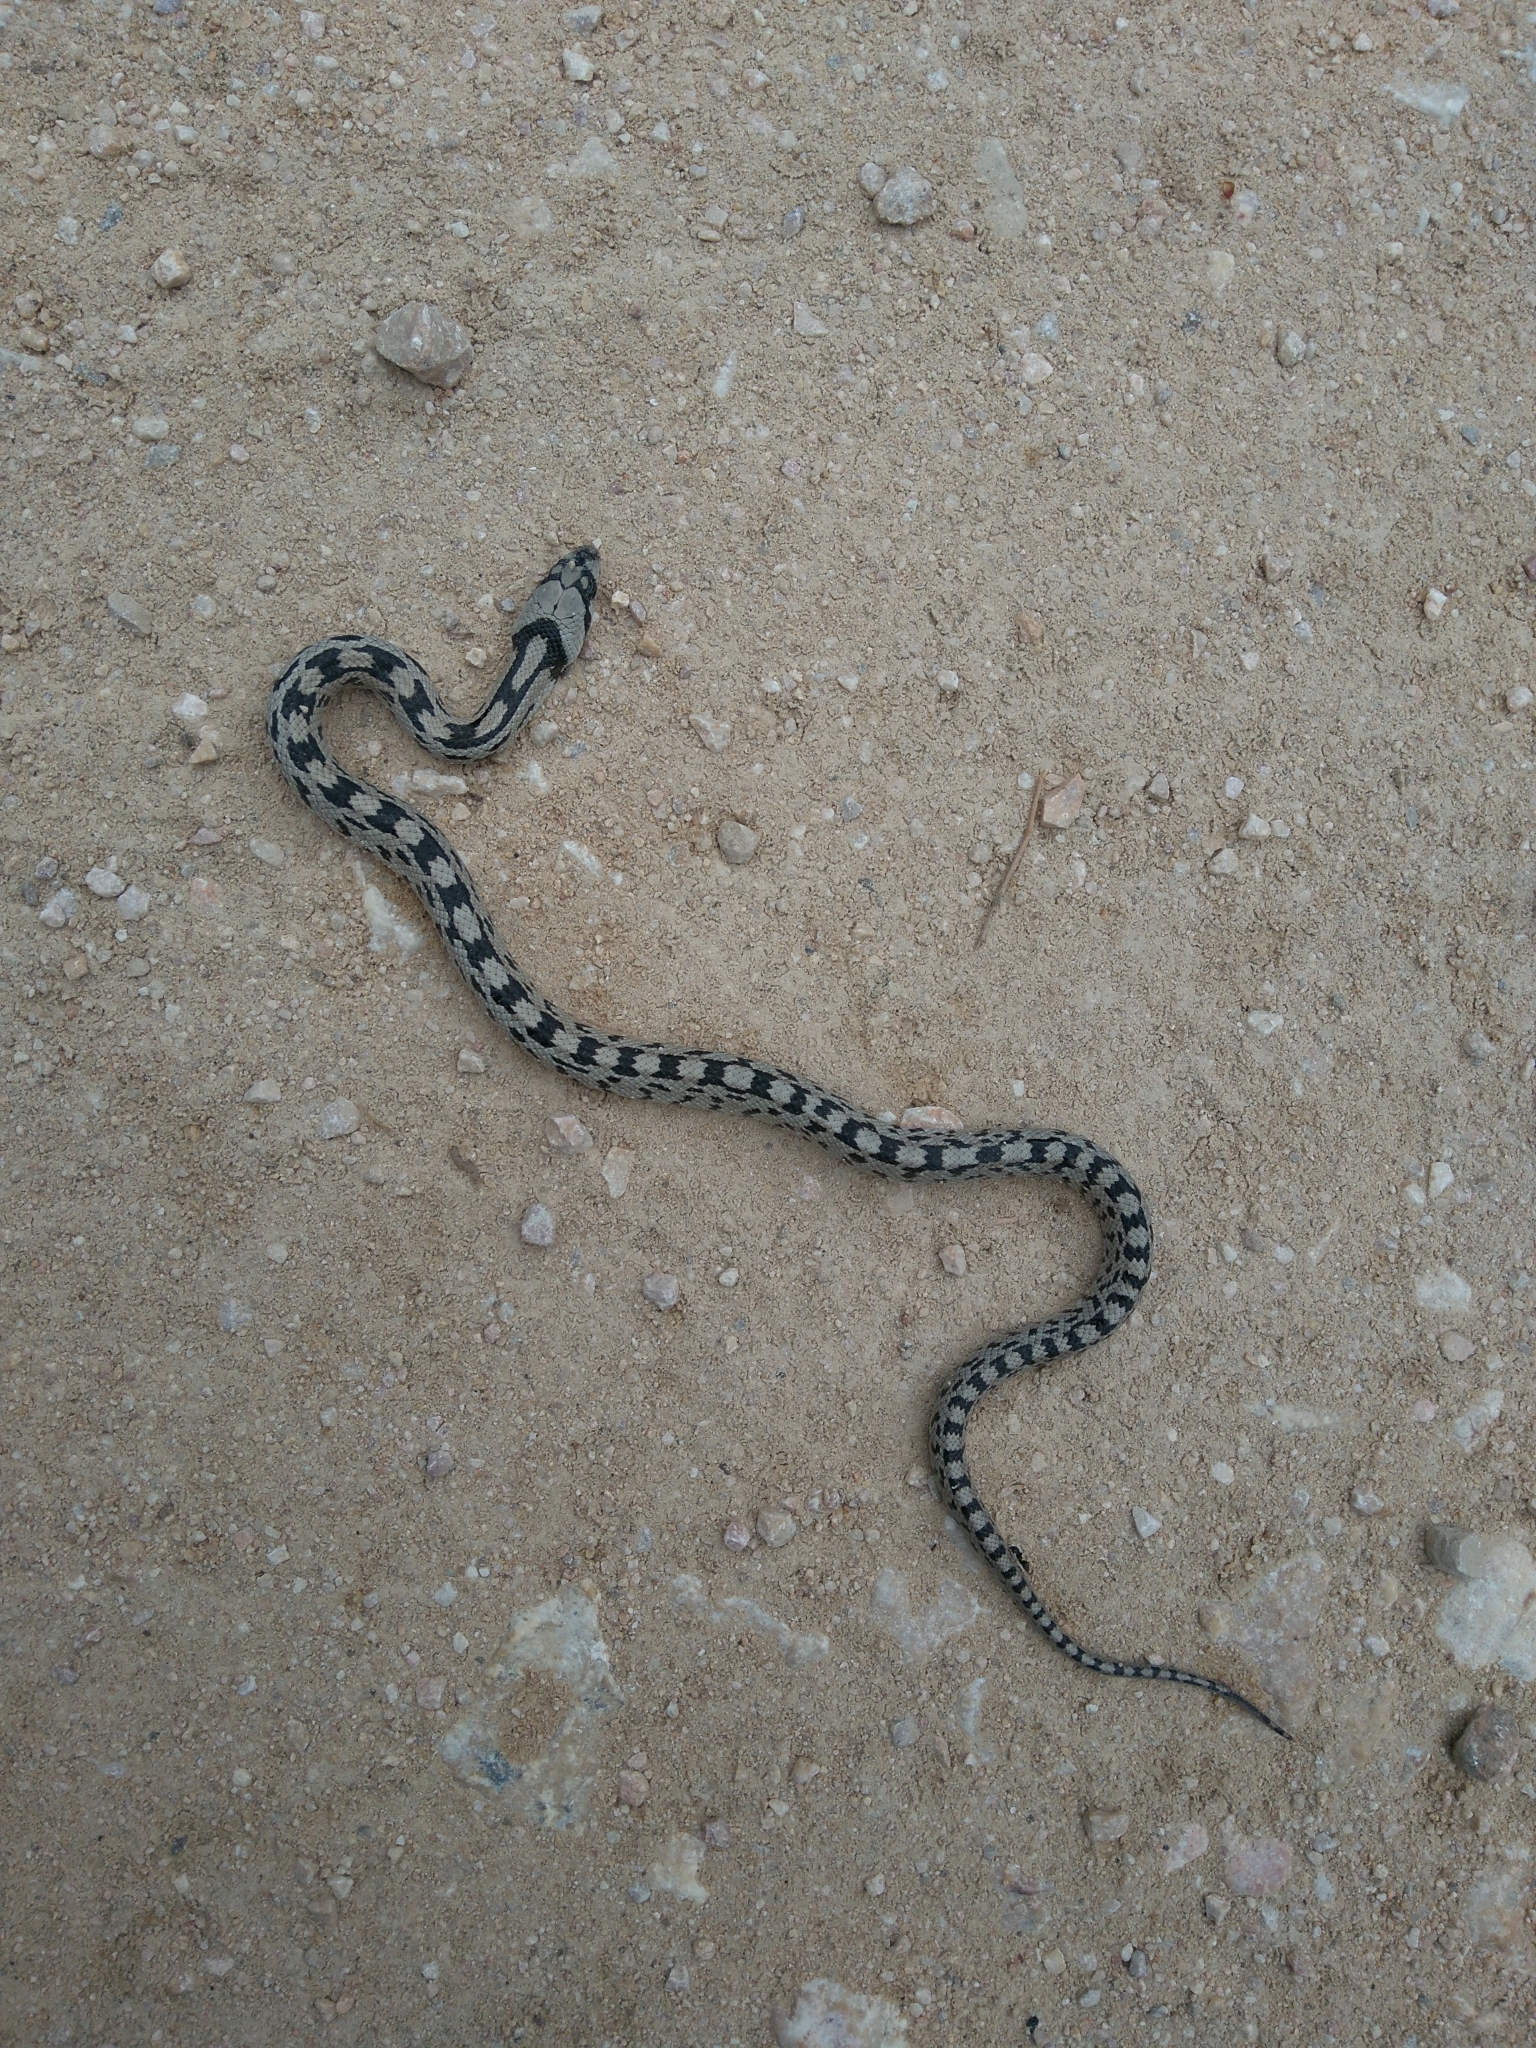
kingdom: Animalia
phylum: Chordata
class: Squamata
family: Colubridae
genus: Zamenis
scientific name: Zamenis scalaris
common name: Ladder snakes
